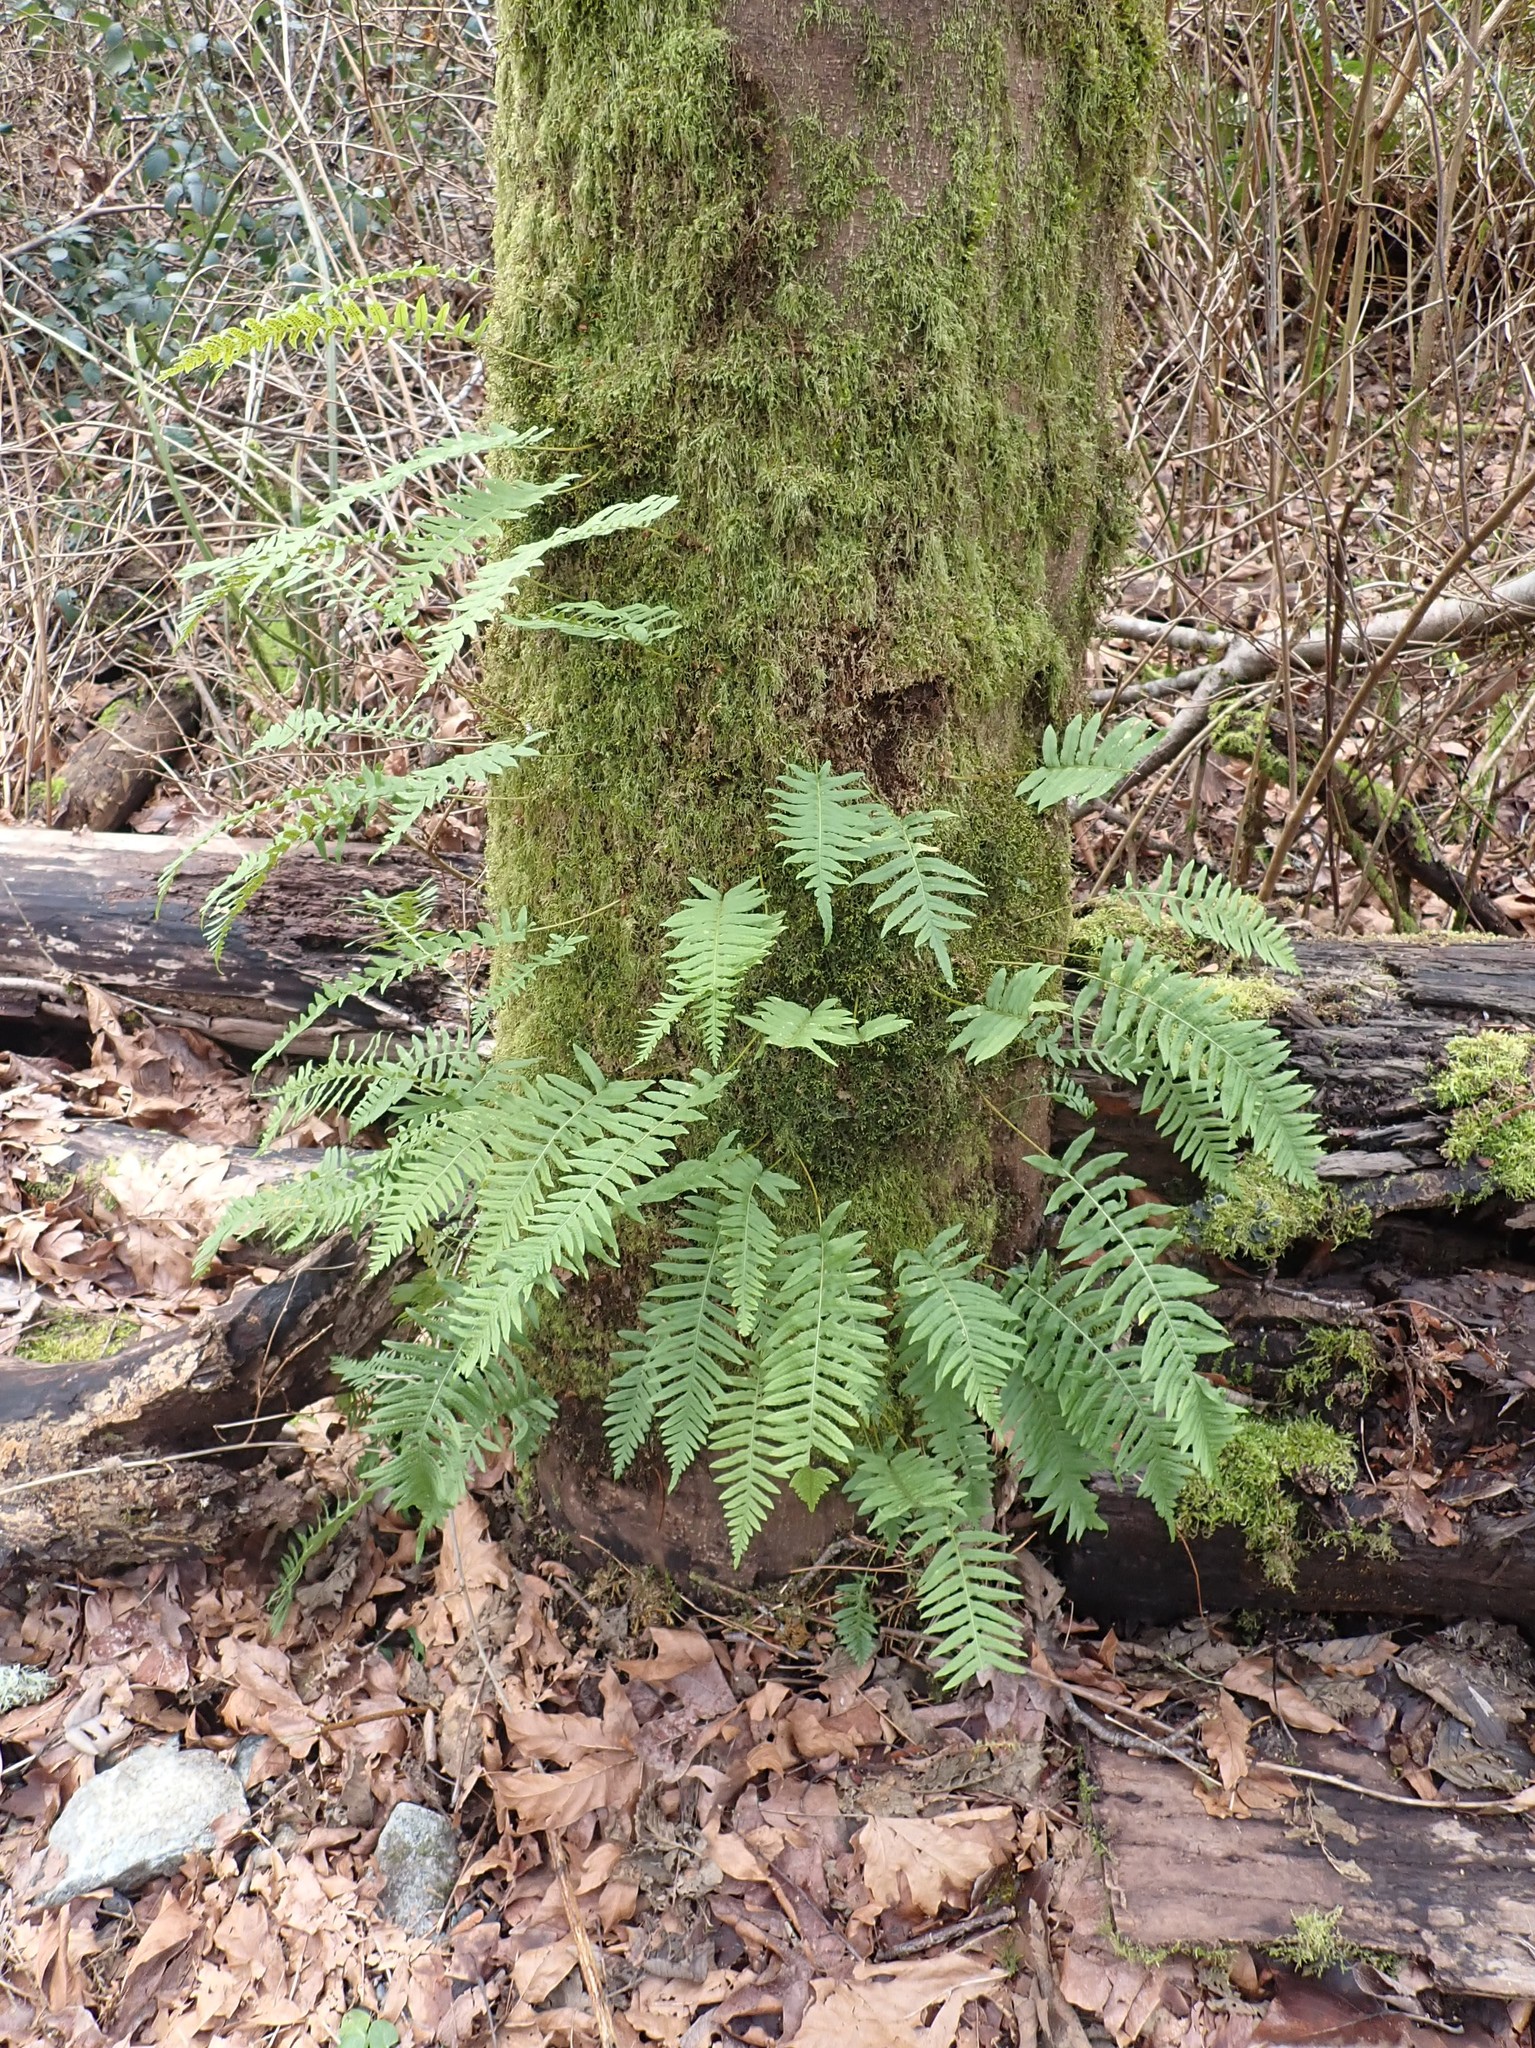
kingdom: Plantae
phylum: Tracheophyta
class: Polypodiopsida
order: Polypodiales
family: Polypodiaceae
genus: Polypodium
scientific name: Polypodium glycyrrhiza
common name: Licorice fern
